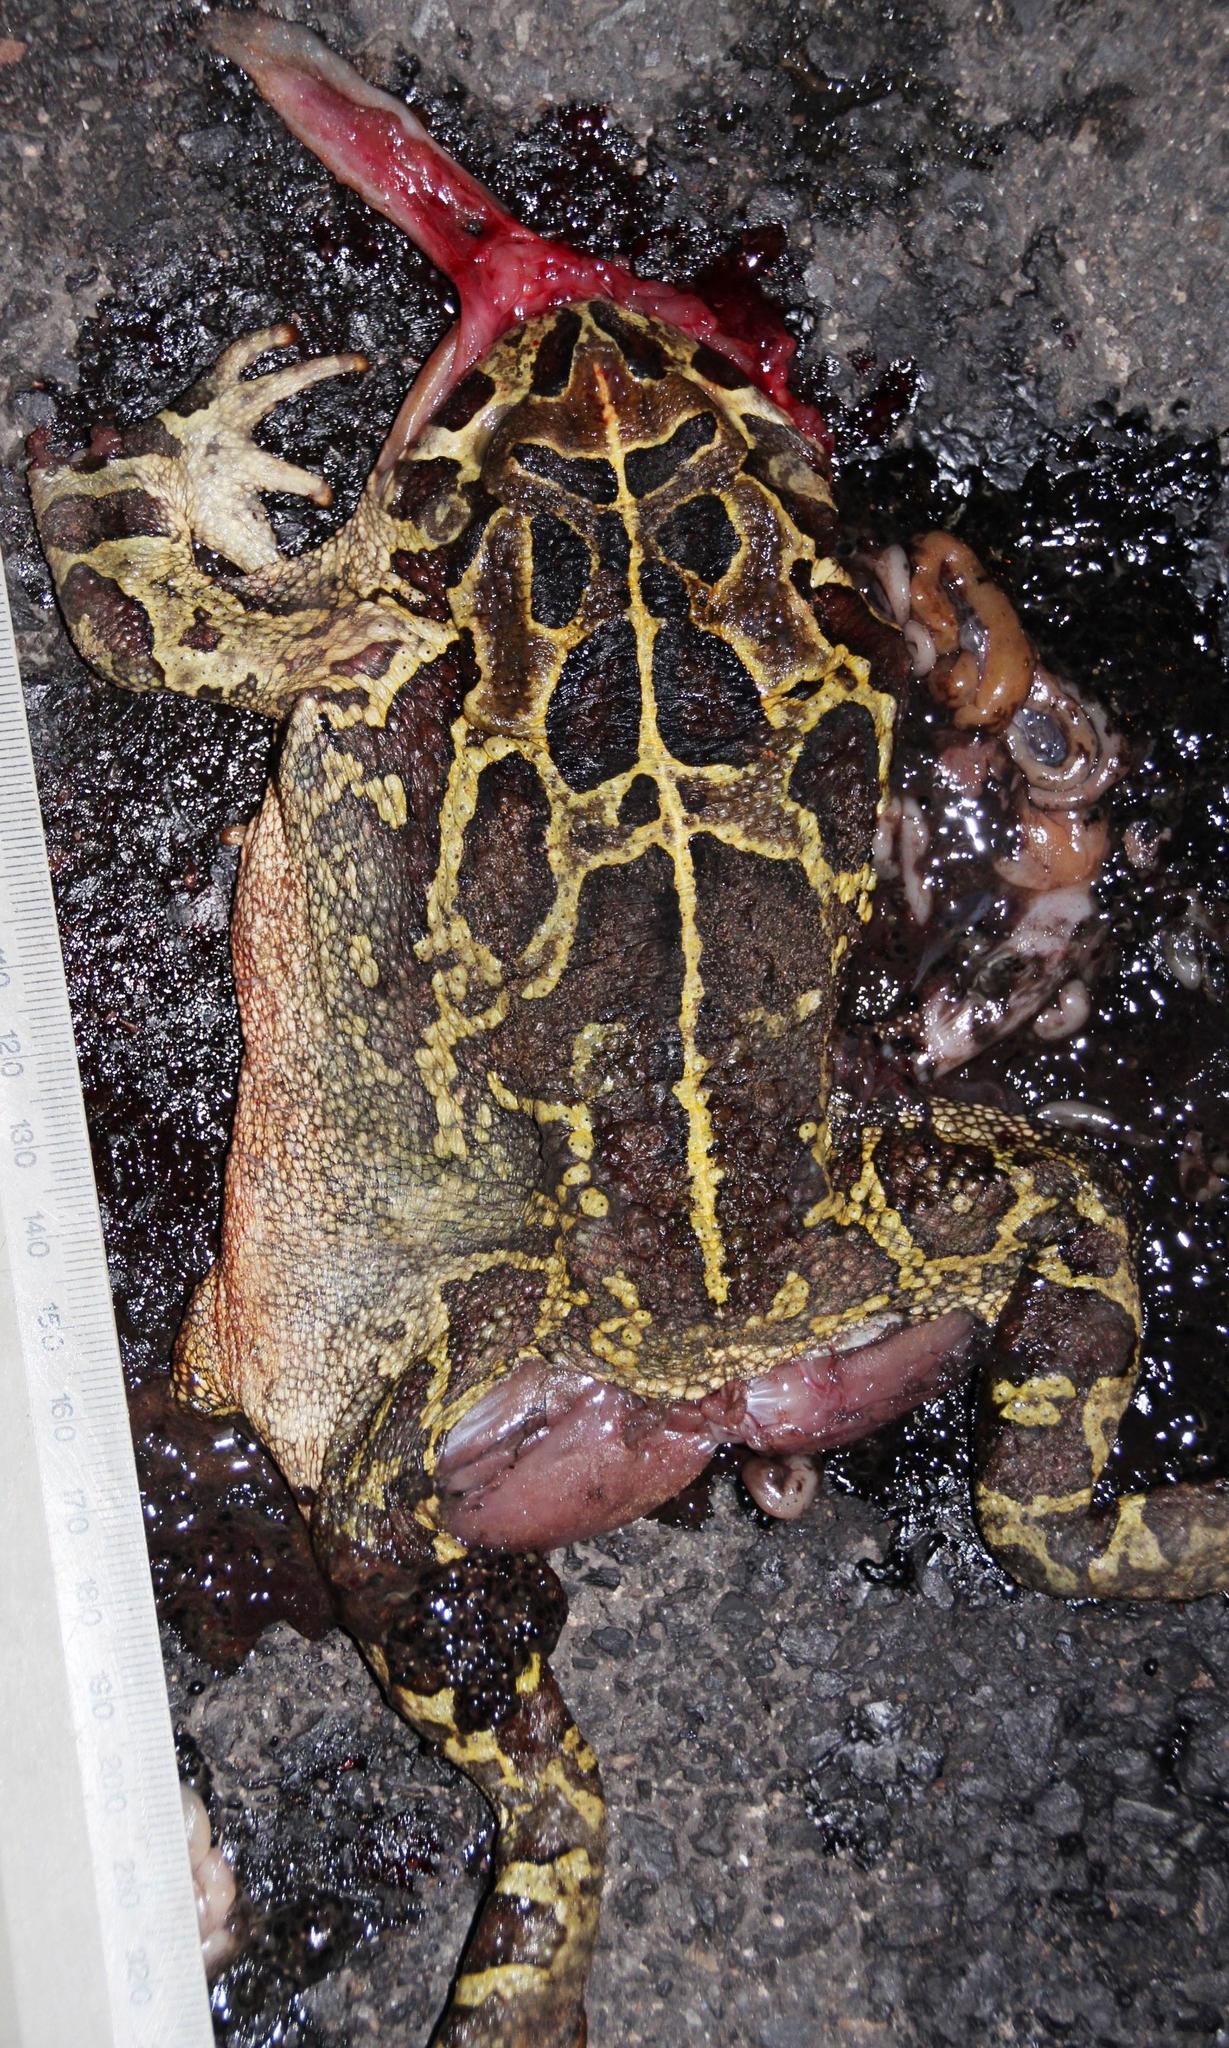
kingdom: Animalia
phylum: Chordata
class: Amphibia
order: Anura
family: Bufonidae
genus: Sclerophrys
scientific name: Sclerophrys pantherina
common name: Panther toad
